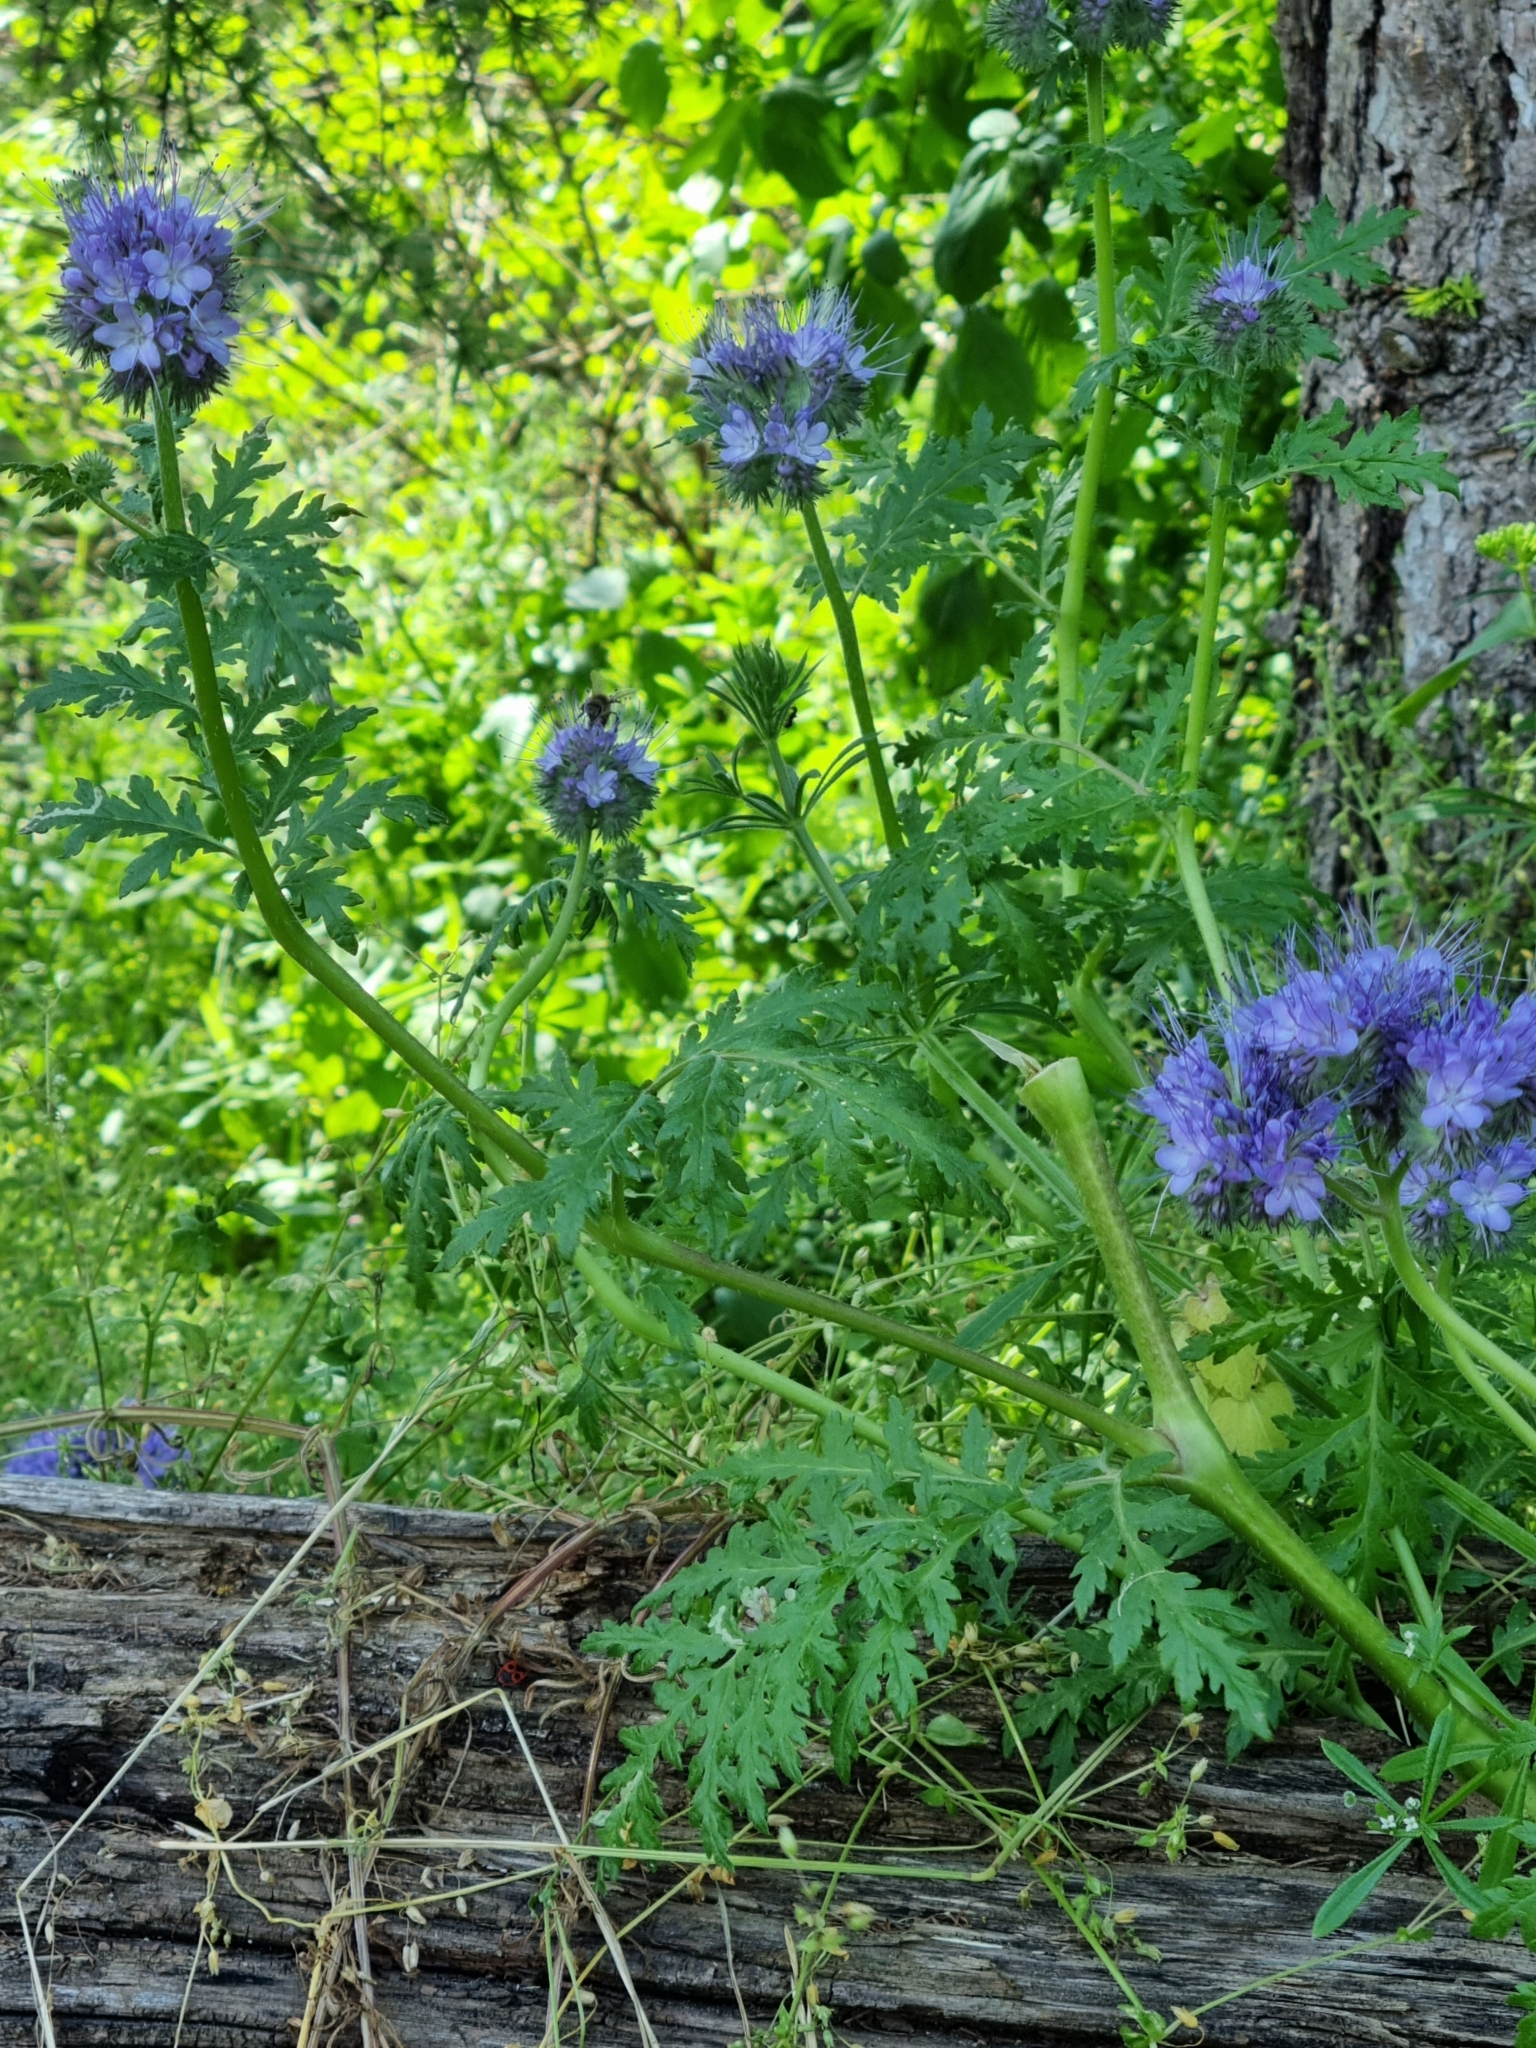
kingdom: Plantae
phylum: Tracheophyta
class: Magnoliopsida
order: Boraginales
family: Hydrophyllaceae
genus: Phacelia
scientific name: Phacelia tanacetifolia
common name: Phacelia
